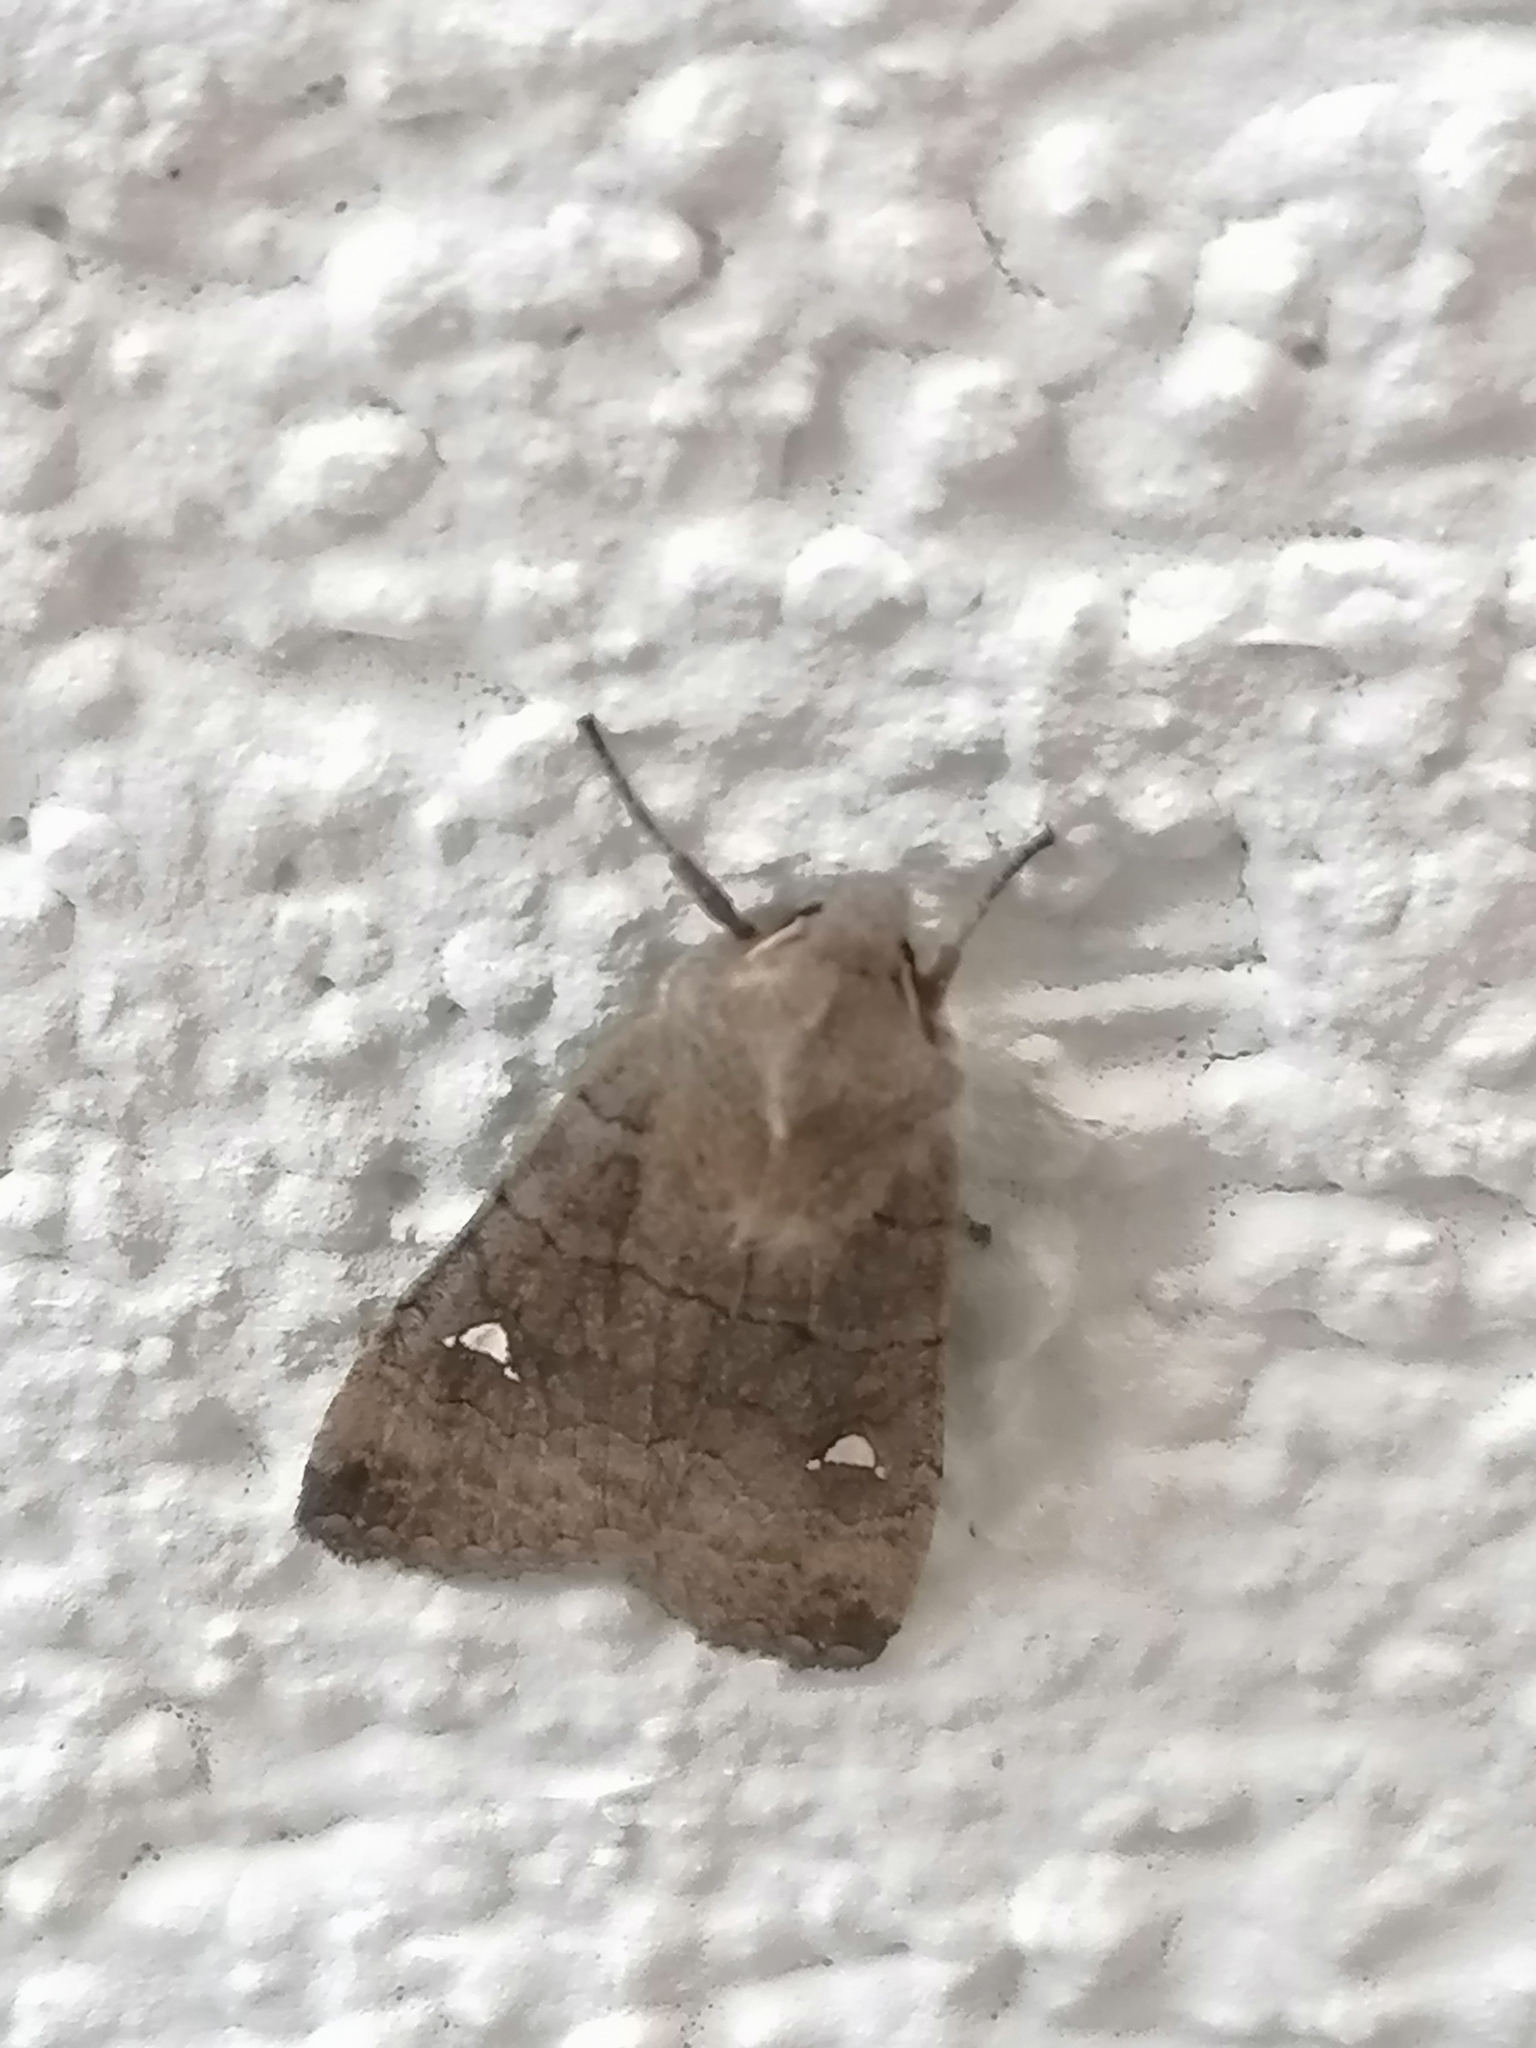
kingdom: Animalia
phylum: Arthropoda
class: Insecta
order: Lepidoptera
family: Noctuidae
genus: Eupsilia
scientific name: Eupsilia transversa
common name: Satellite
